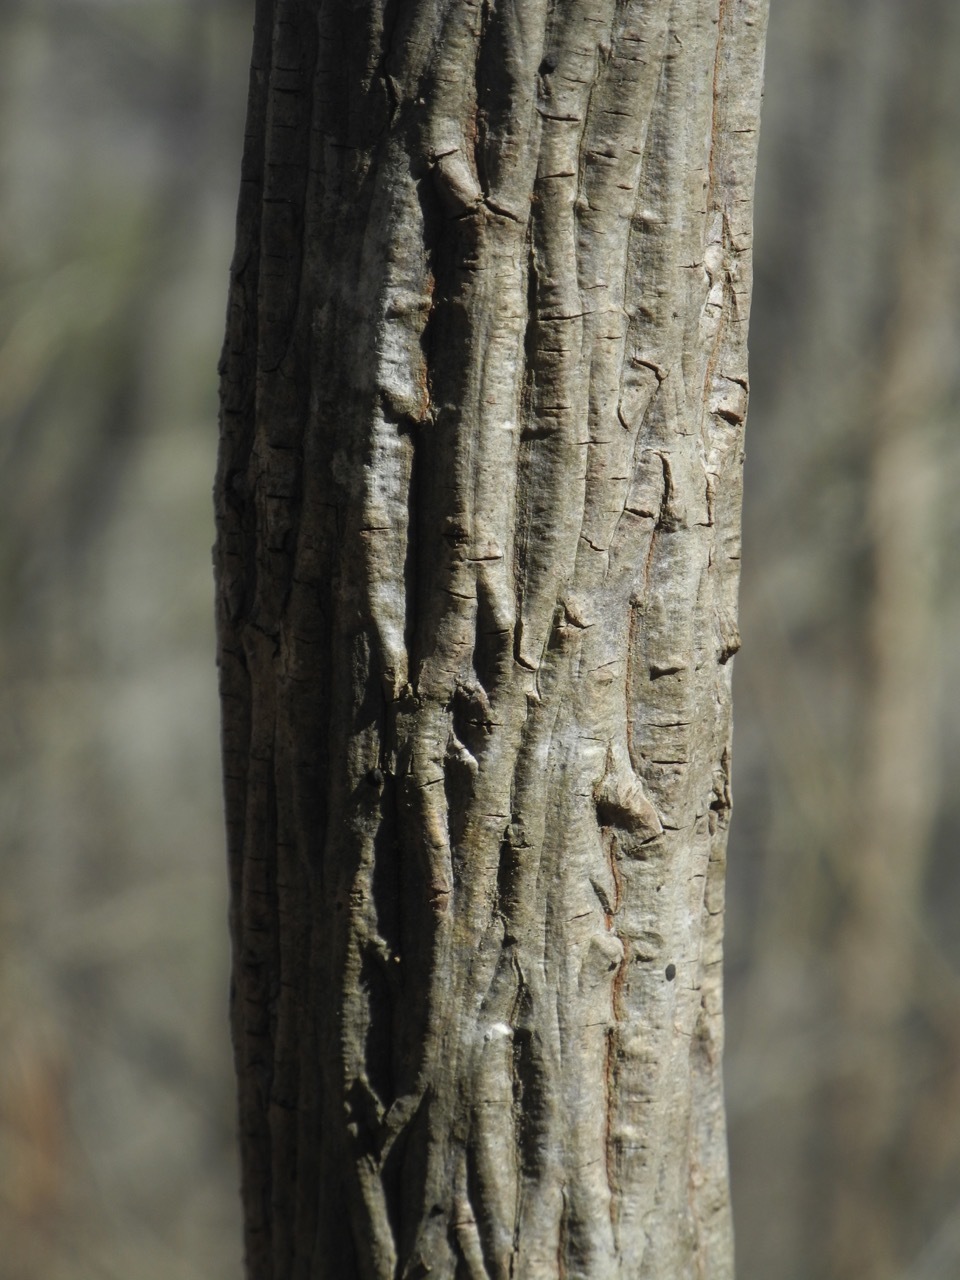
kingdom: Plantae
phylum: Tracheophyta
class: Magnoliopsida
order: Fagales
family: Juglandaceae
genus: Carya
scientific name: Carya alba
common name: Mockernut hickory
